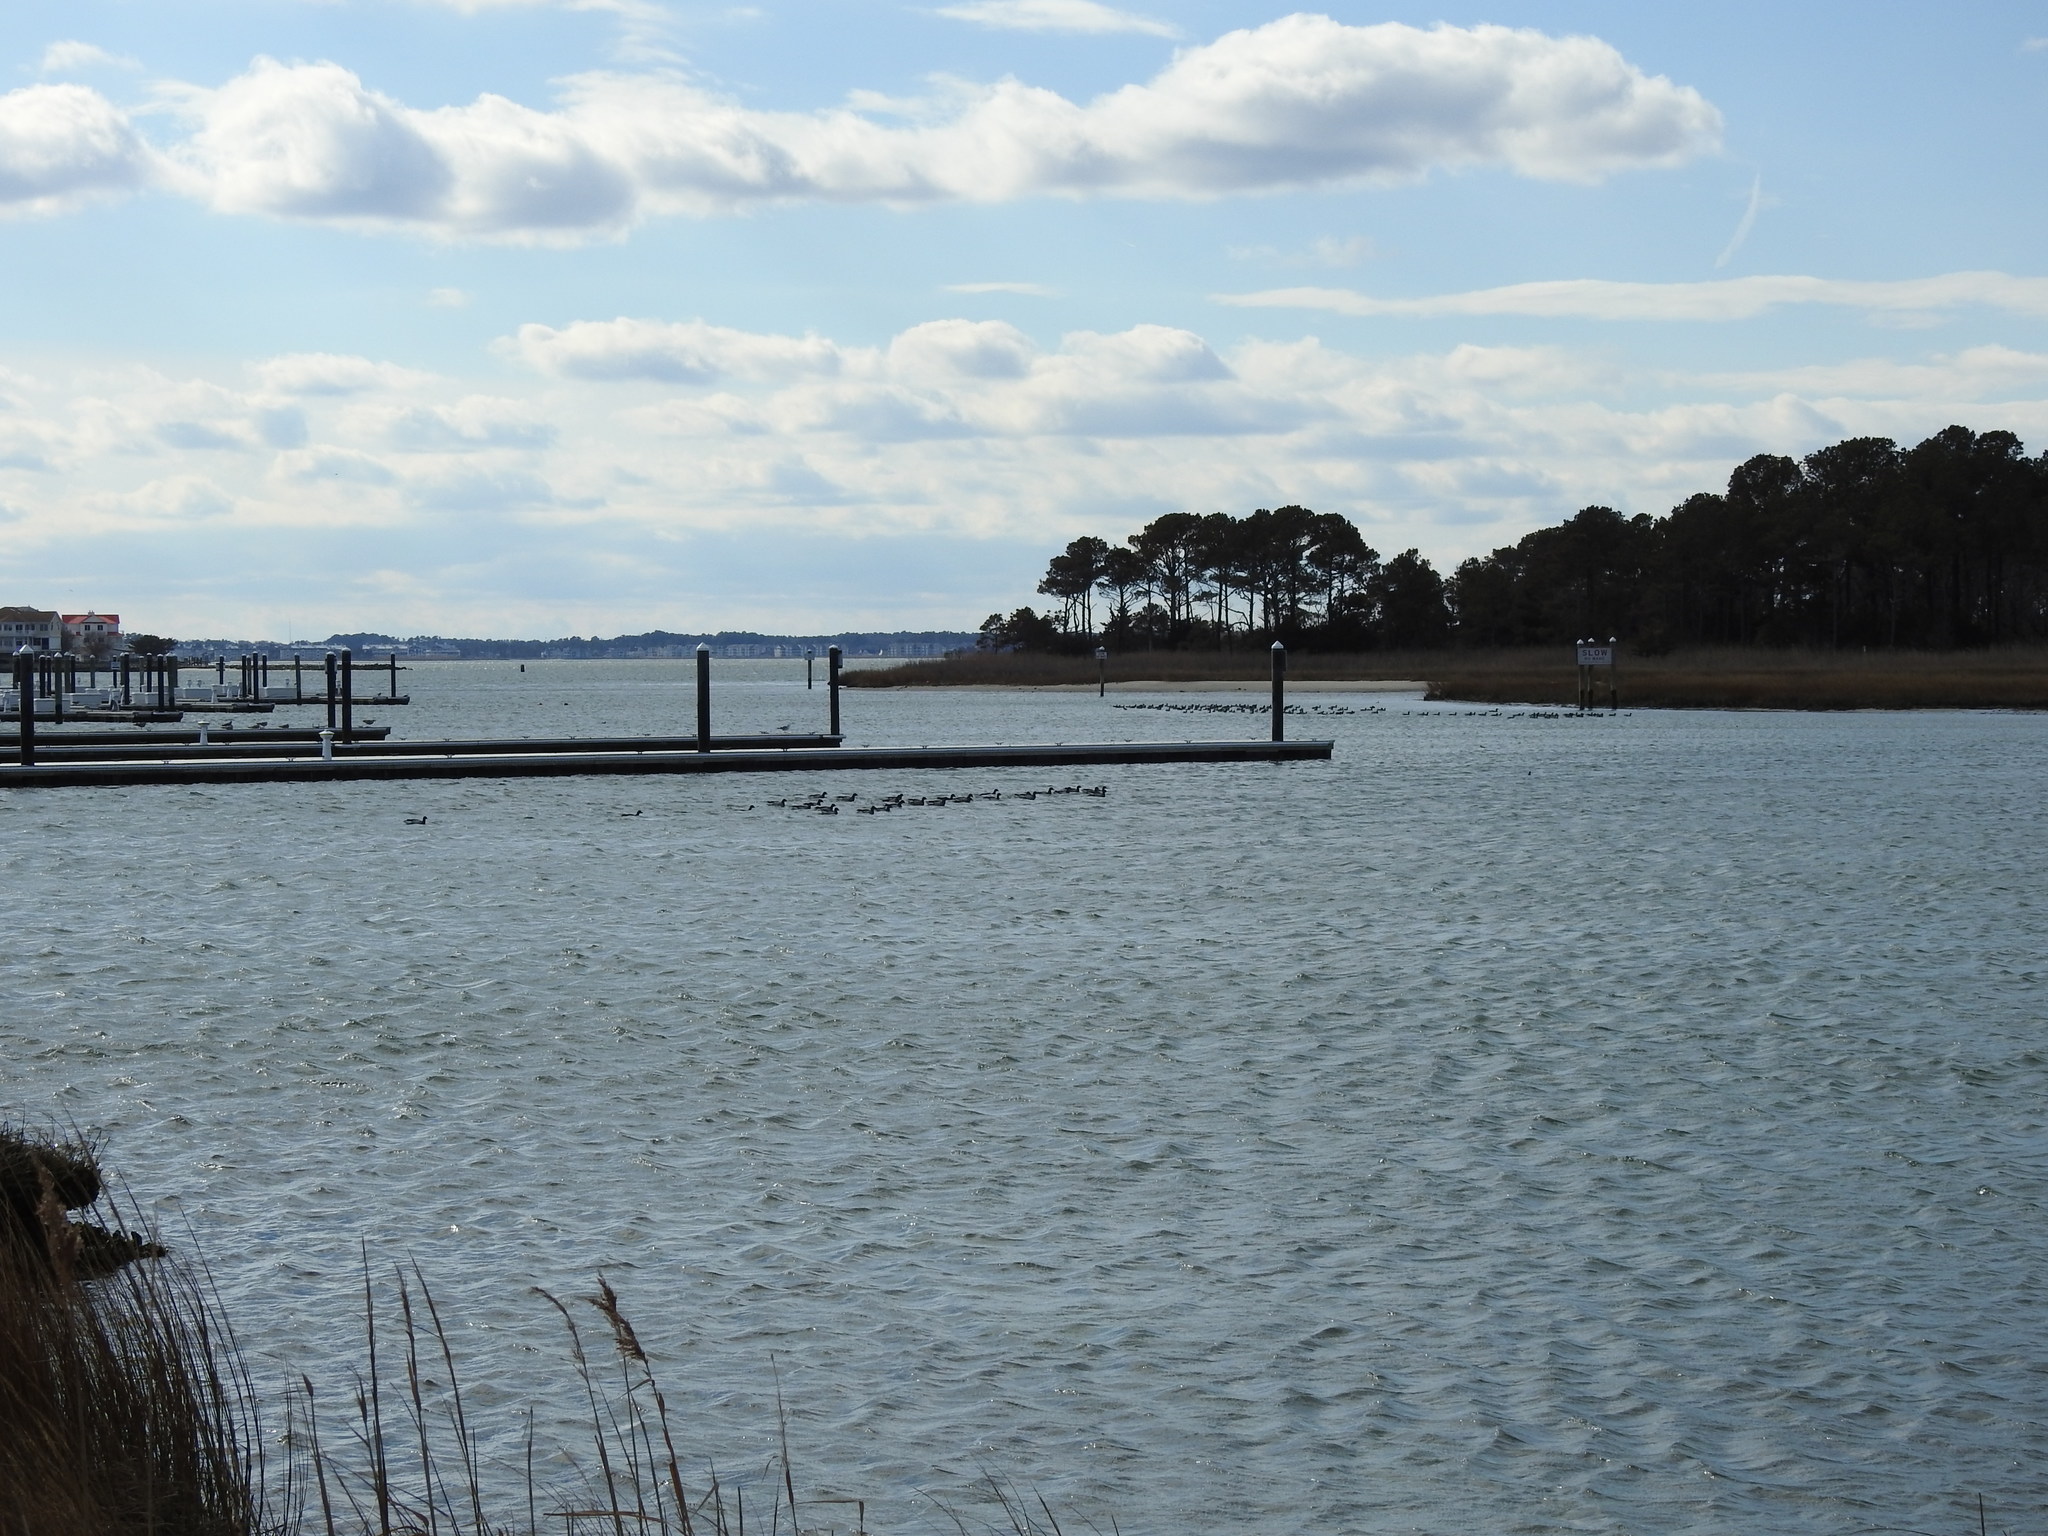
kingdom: Animalia
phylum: Chordata
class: Aves
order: Anseriformes
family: Anatidae
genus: Branta
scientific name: Branta bernicla
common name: Brant goose
